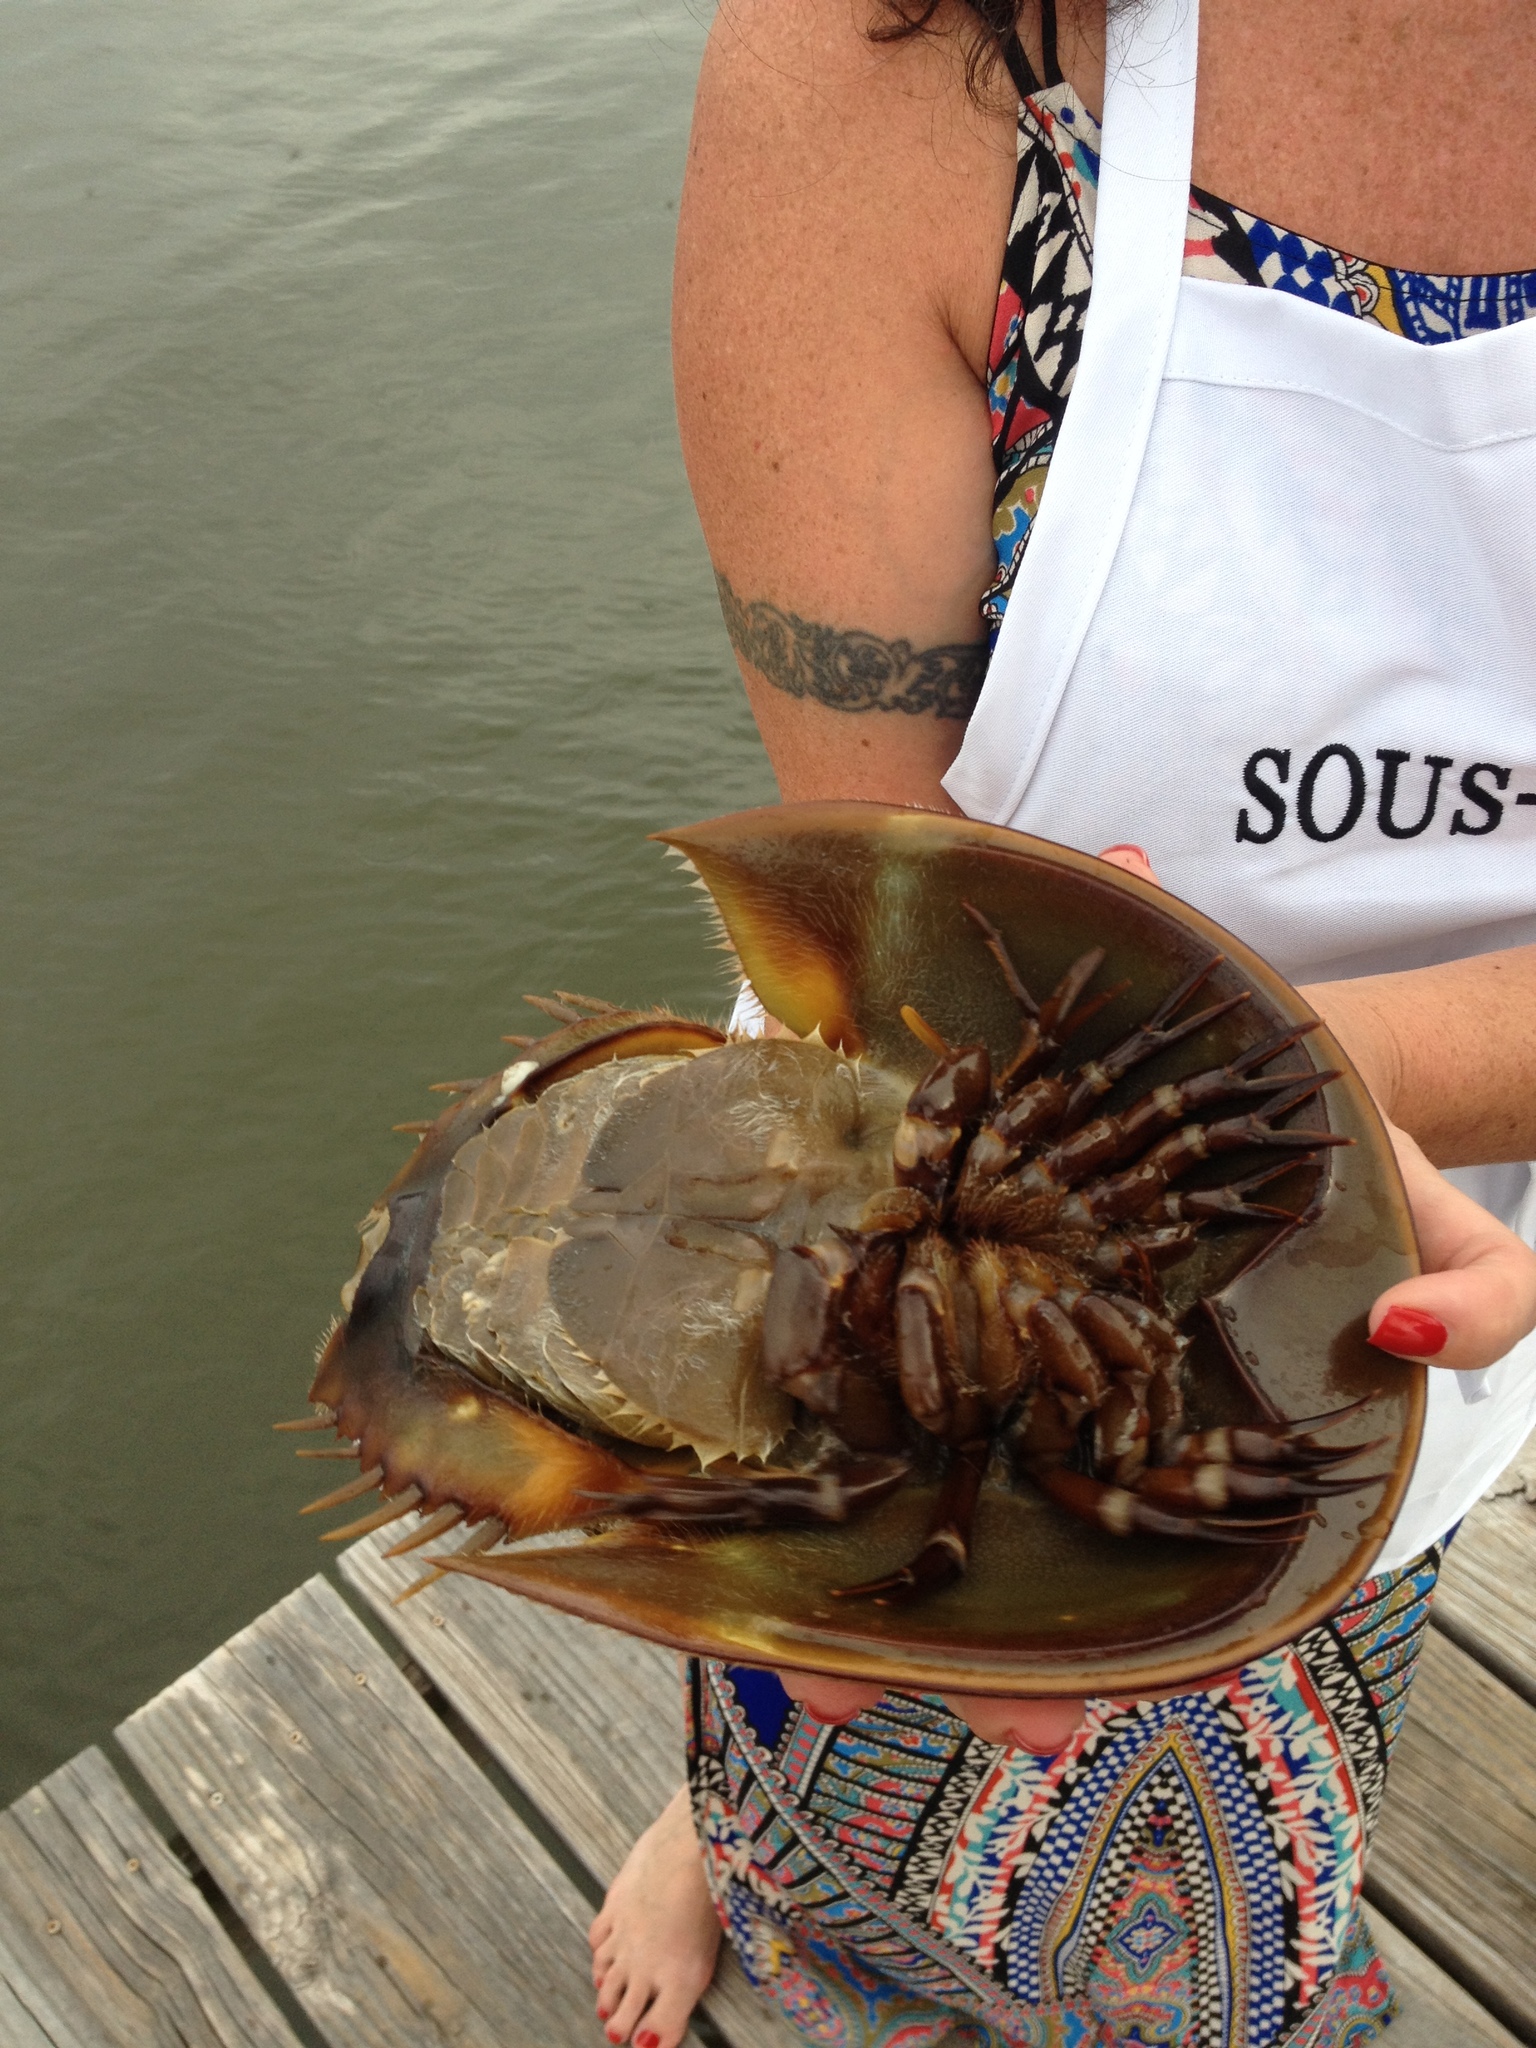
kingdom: Animalia
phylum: Arthropoda
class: Merostomata
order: Xiphosurida
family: Limulidae
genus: Limulus
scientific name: Limulus polyphemus
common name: Horseshoe crab
